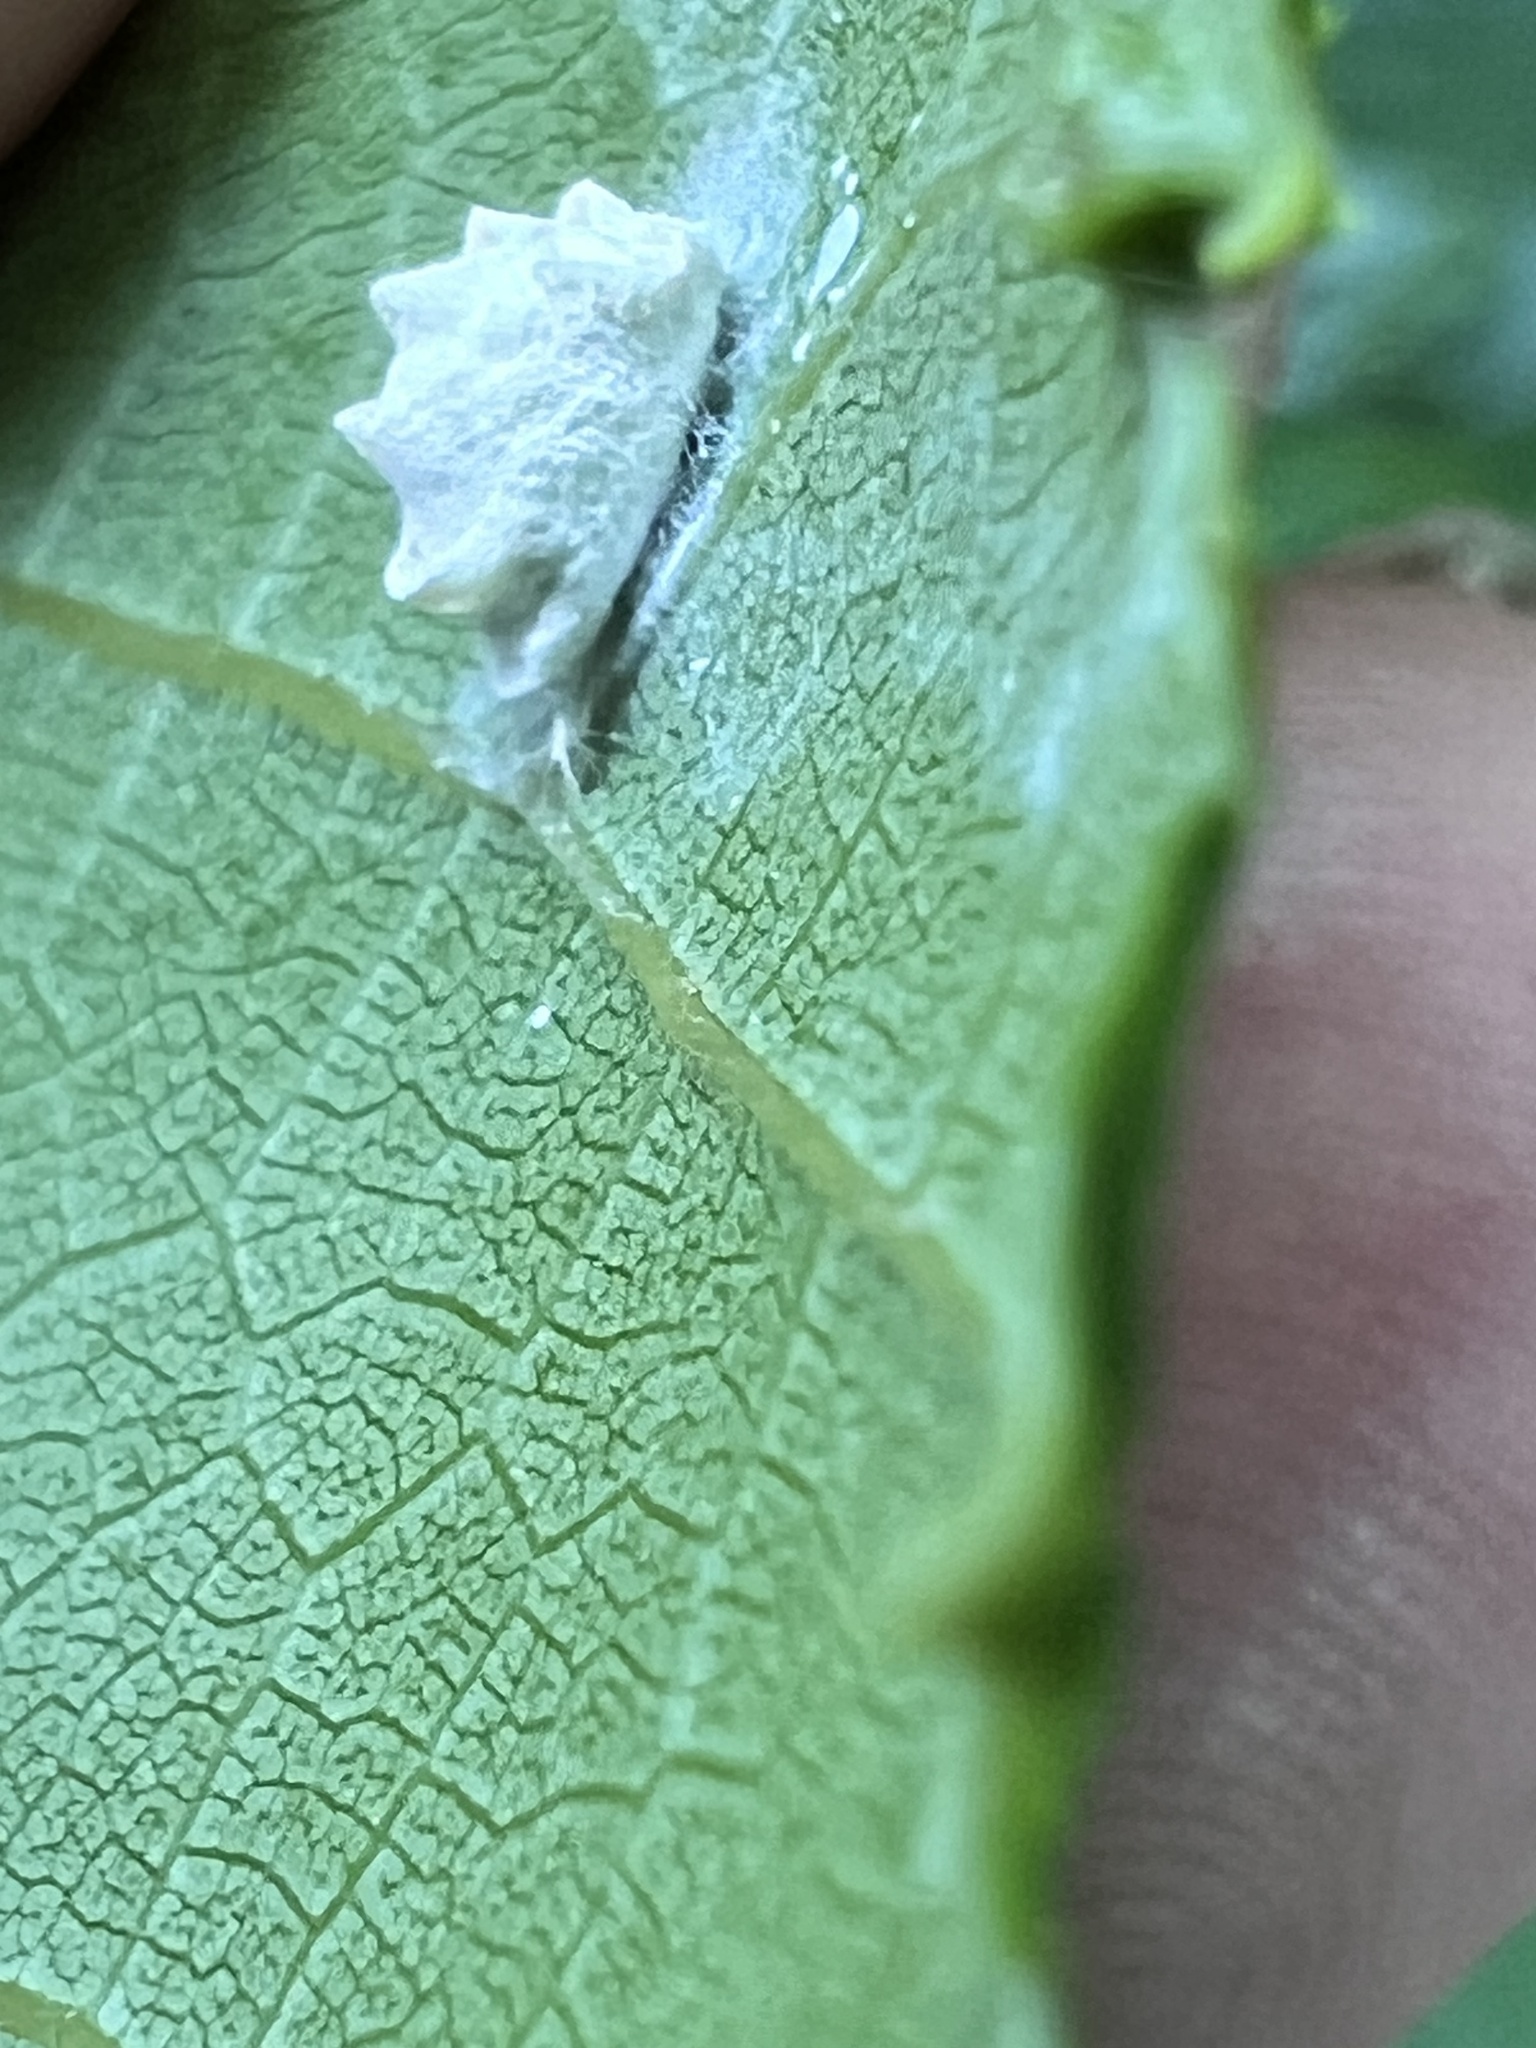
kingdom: Animalia
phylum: Arthropoda
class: Insecta
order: Lepidoptera
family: Epipyropidae
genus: Fulgoraecia
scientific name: Fulgoraecia exigua
